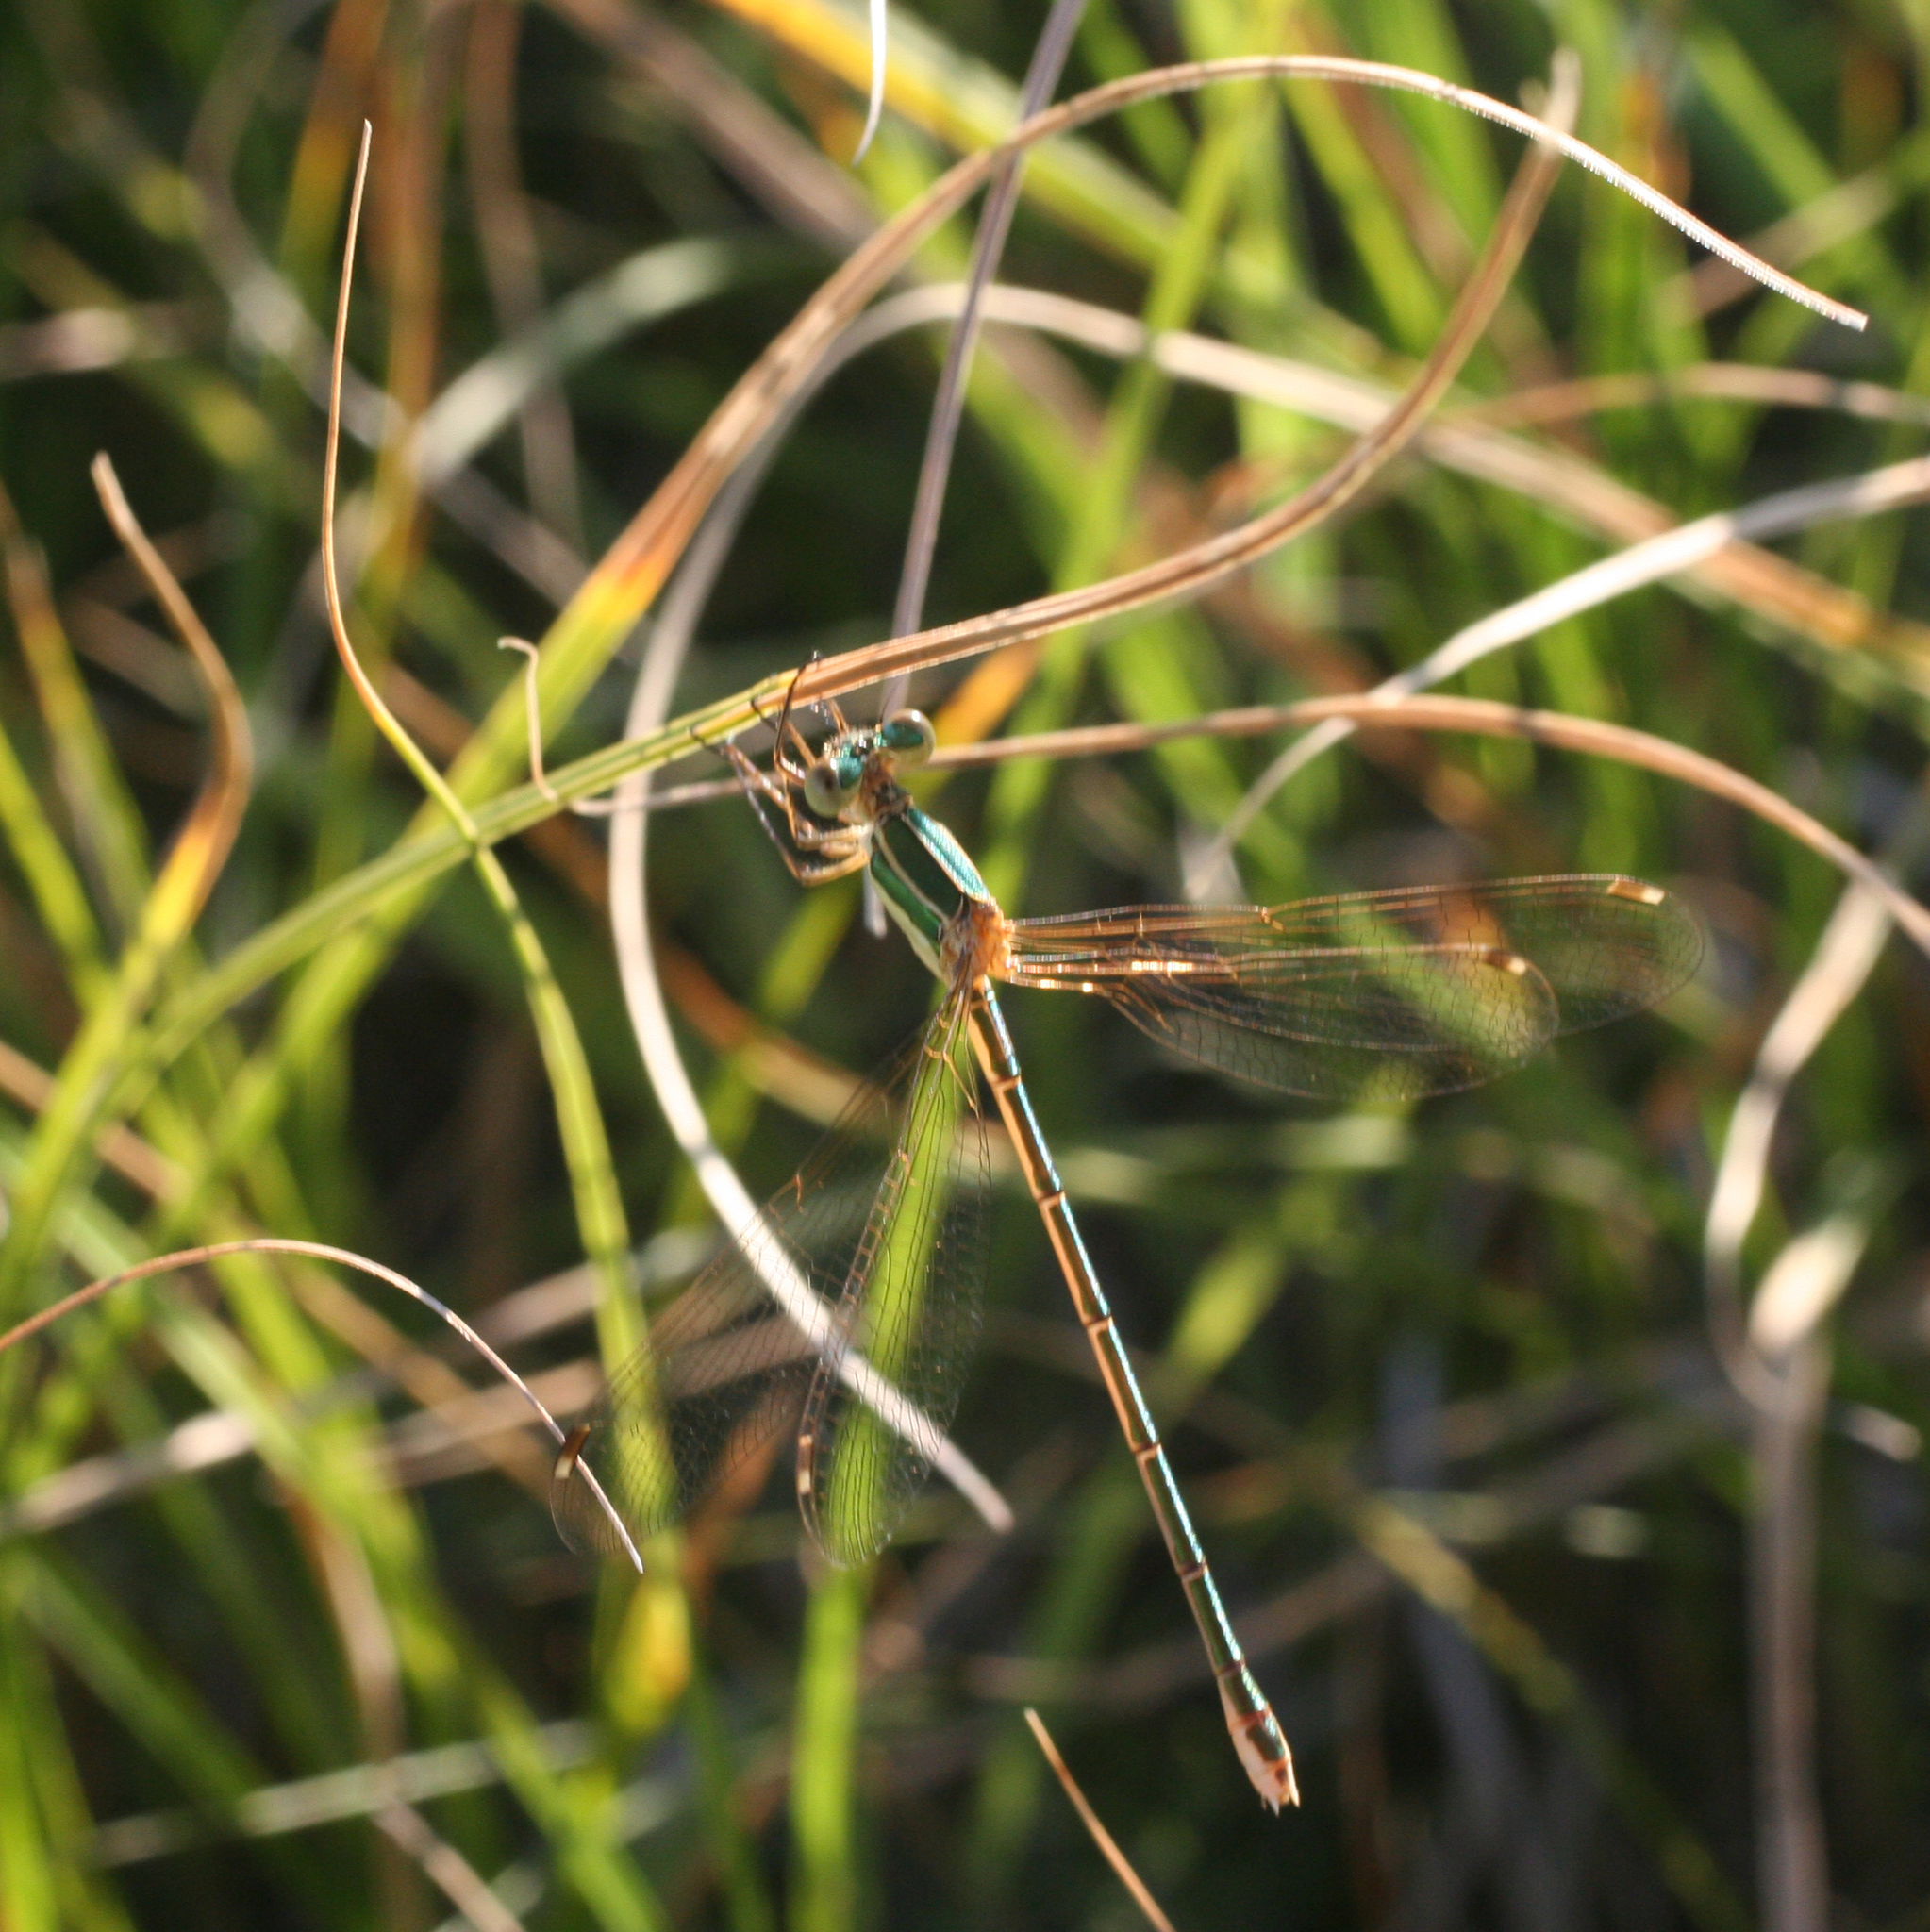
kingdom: Animalia
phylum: Arthropoda
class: Insecta
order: Odonata
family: Lestidae
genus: Lestes
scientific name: Lestes barbarus
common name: Migrant spreadwing
